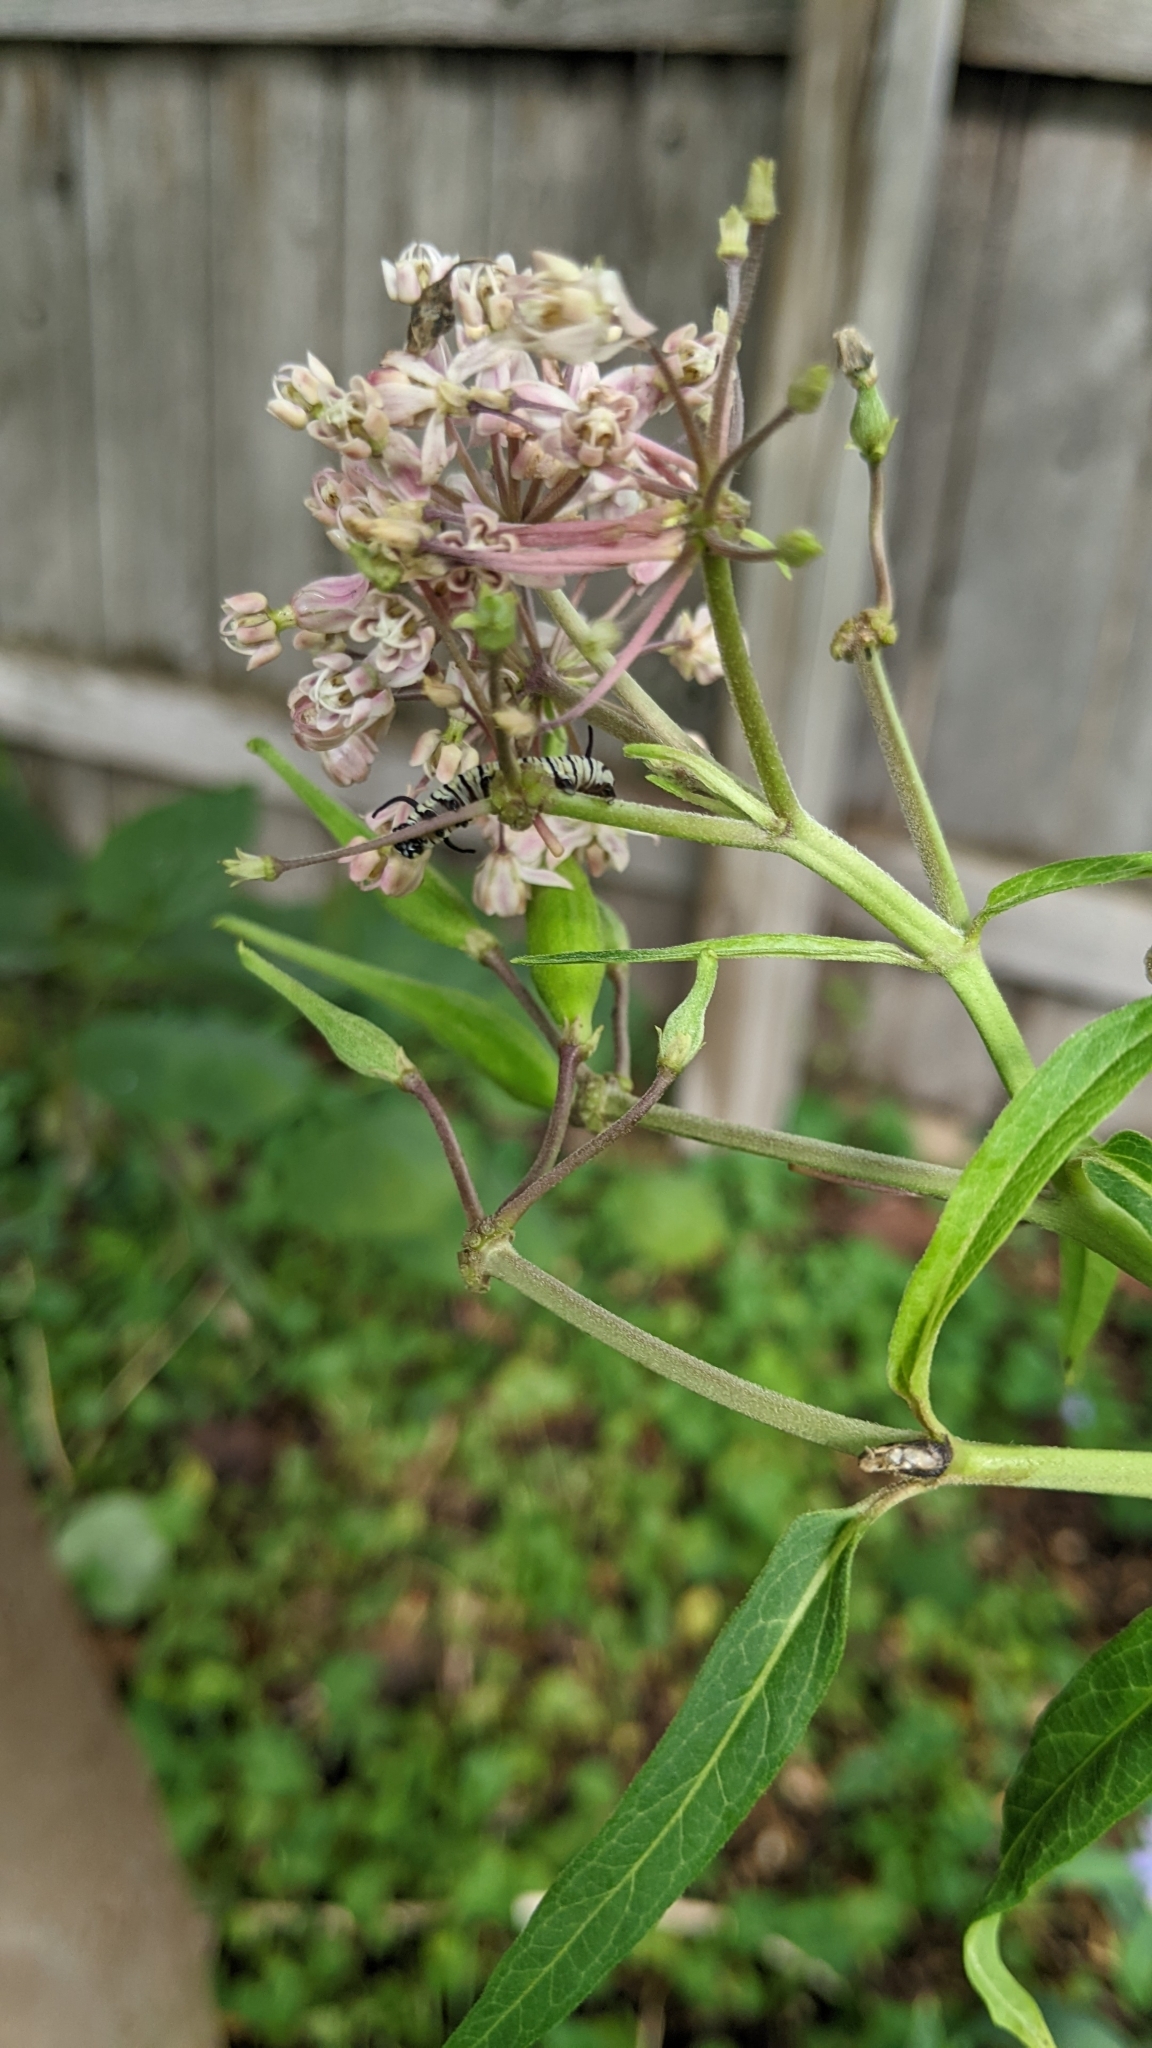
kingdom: Animalia
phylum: Arthropoda
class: Insecta
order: Lepidoptera
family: Nymphalidae
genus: Danaus
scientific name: Danaus plexippus
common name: Monarch
